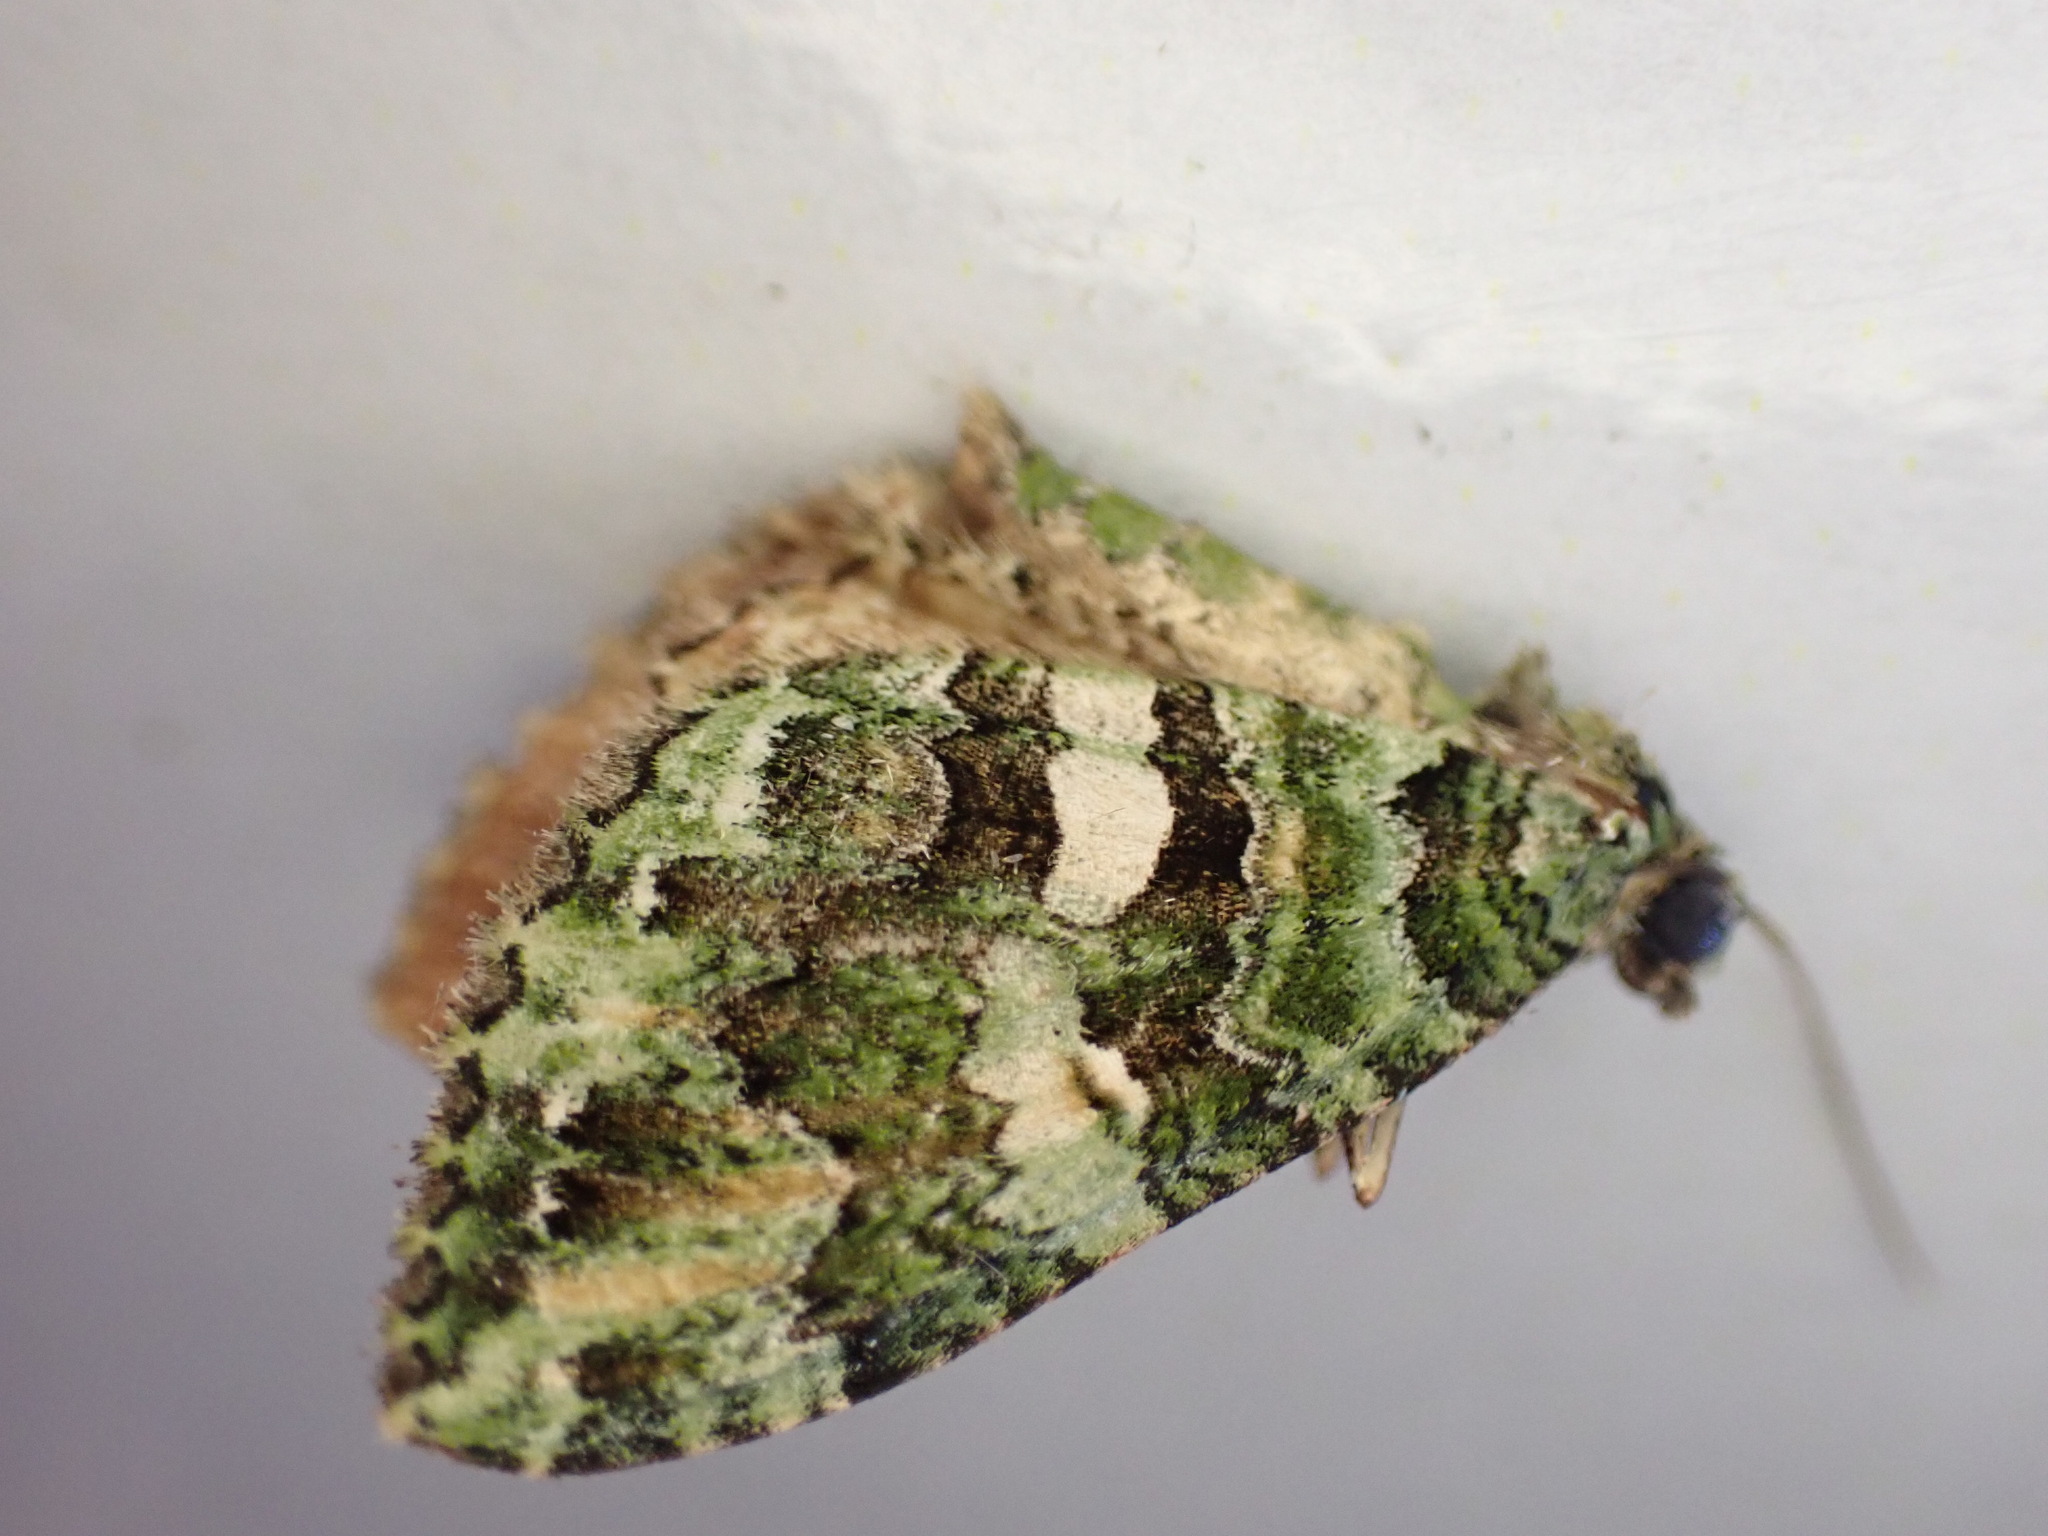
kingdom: Animalia
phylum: Arthropoda
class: Insecta
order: Lepidoptera
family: Geometridae
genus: Austrocidaria
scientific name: Austrocidaria similata
